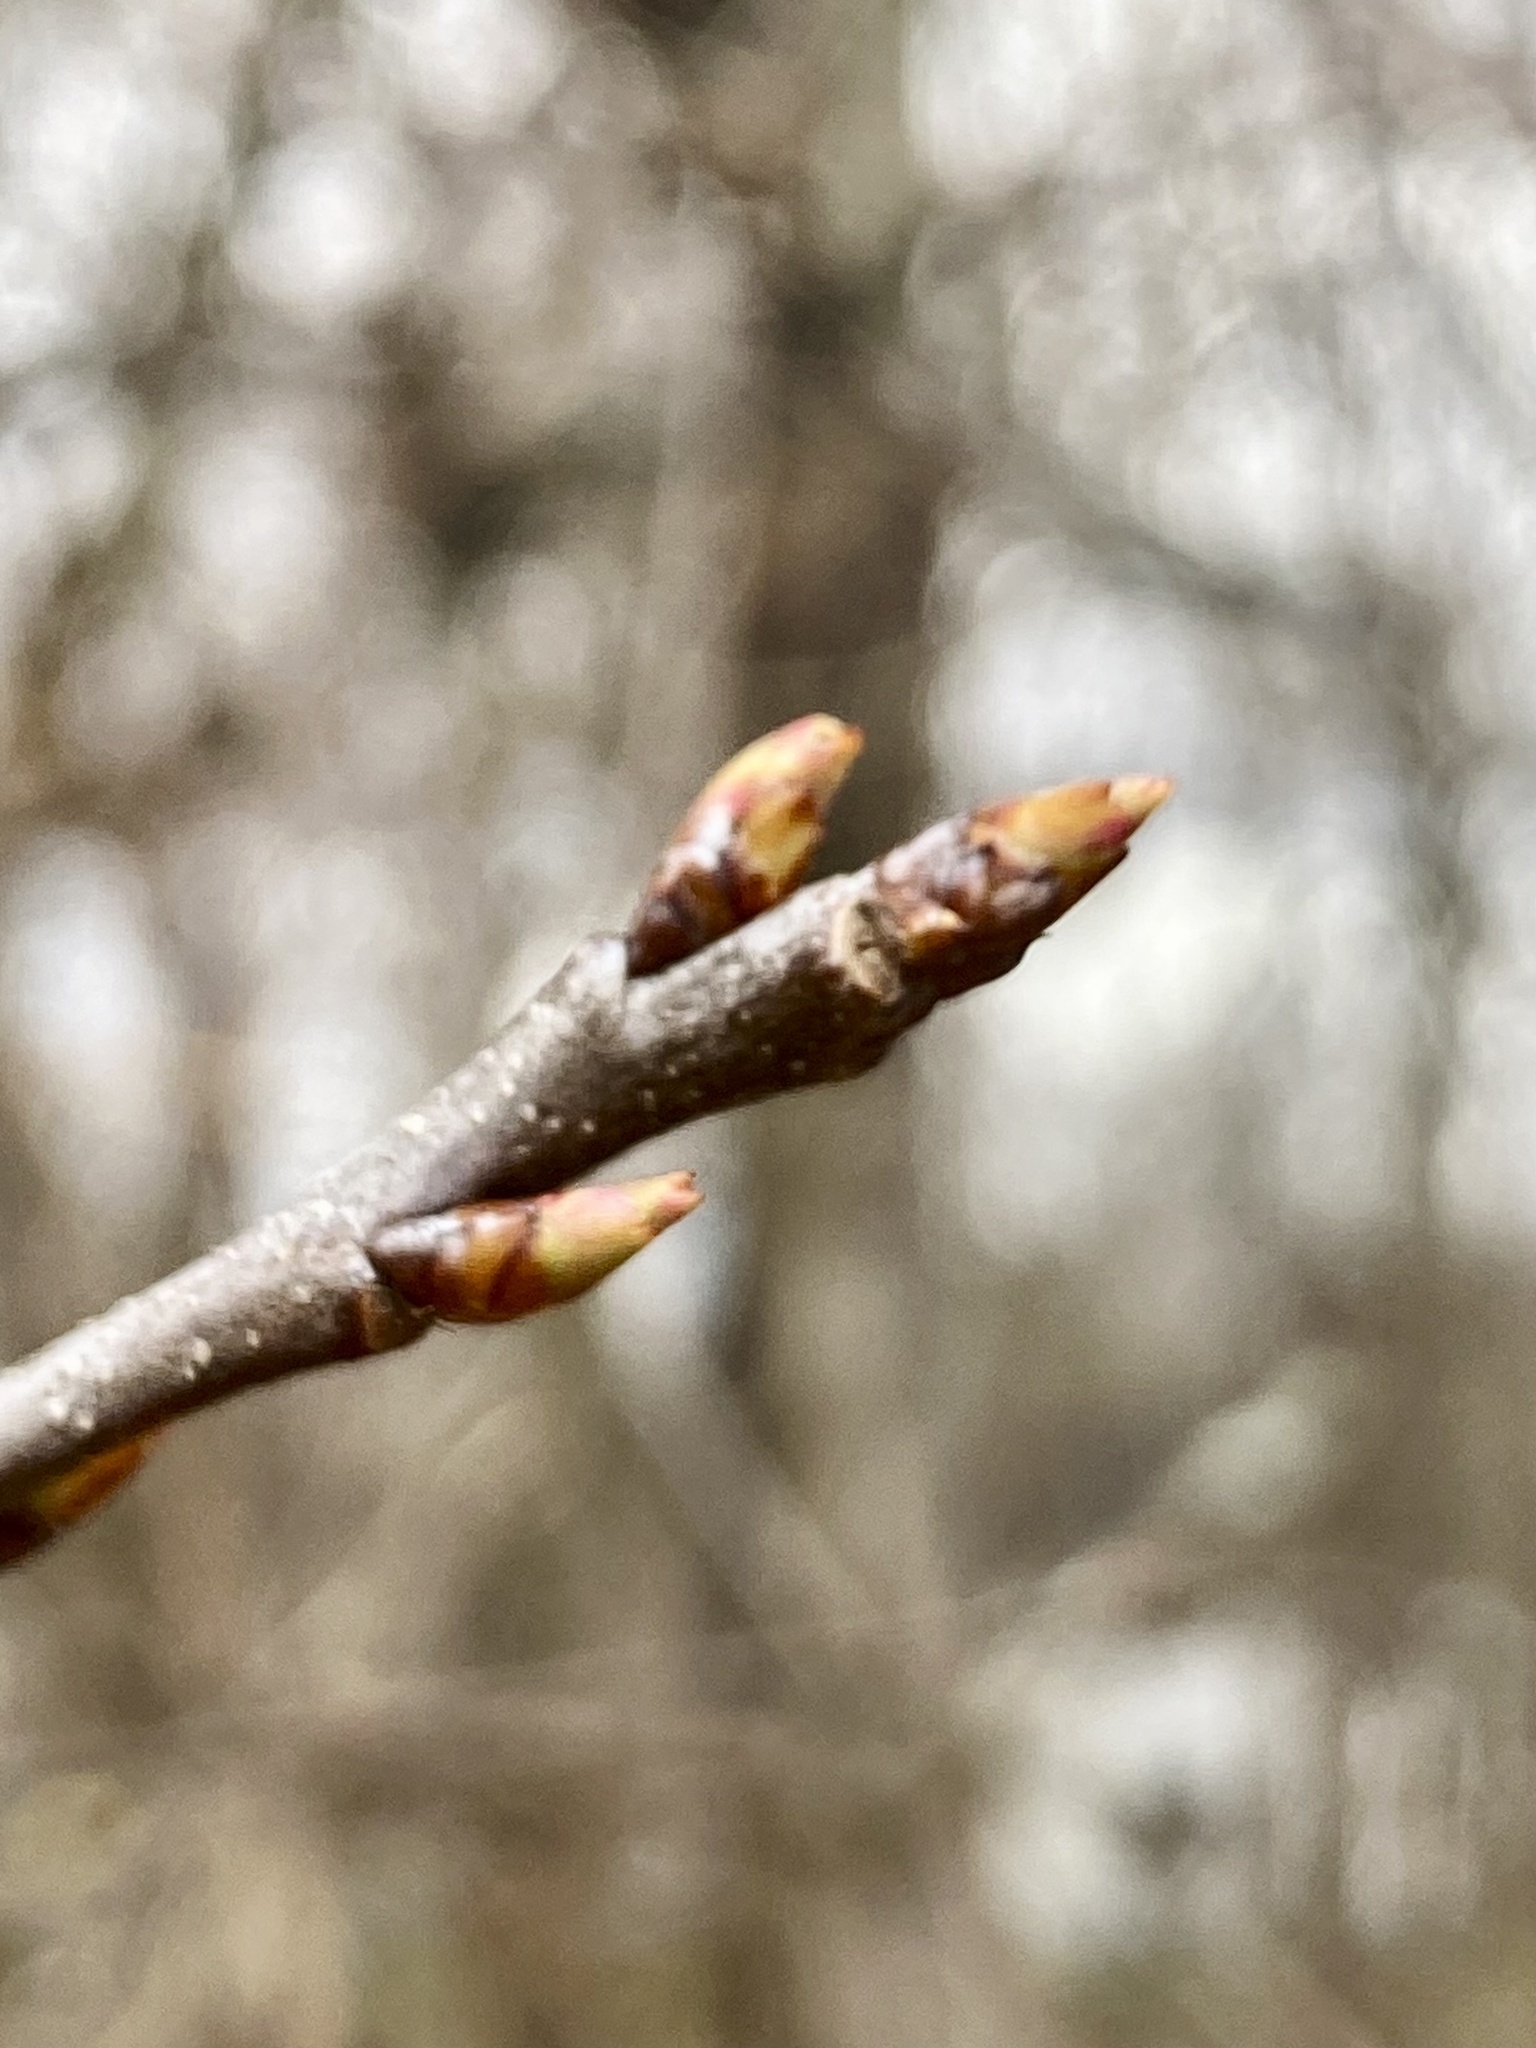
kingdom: Plantae
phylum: Tracheophyta
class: Magnoliopsida
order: Rosales
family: Rosaceae
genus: Prunus
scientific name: Prunus serotina
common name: Black cherry
